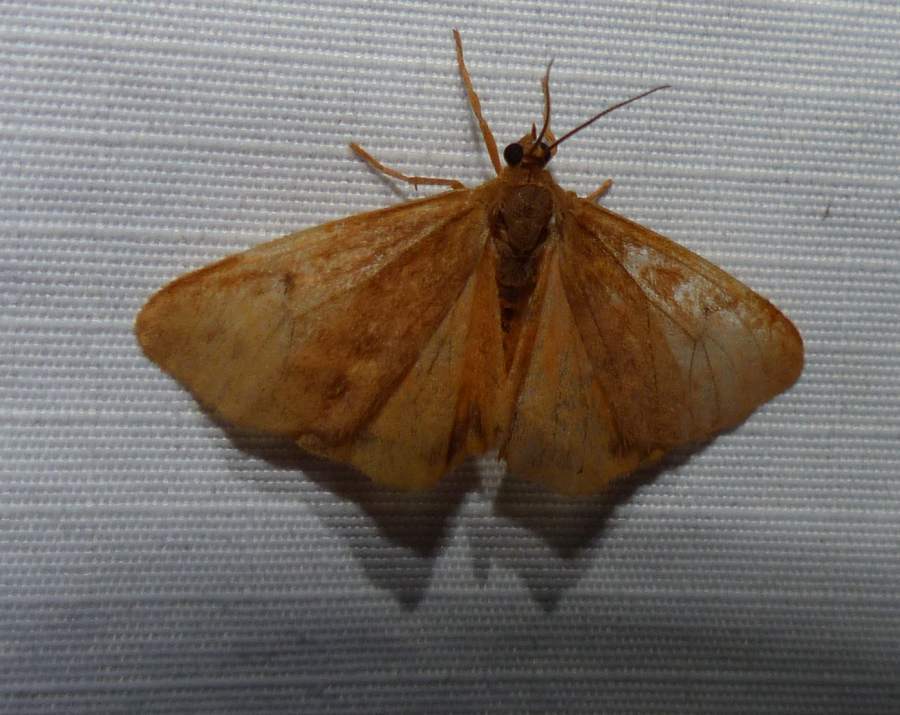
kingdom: Animalia
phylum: Arthropoda
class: Insecta
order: Lepidoptera
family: Erebidae
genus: Virbia
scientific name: Virbia ferruginosa
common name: Rusty virbia moth
